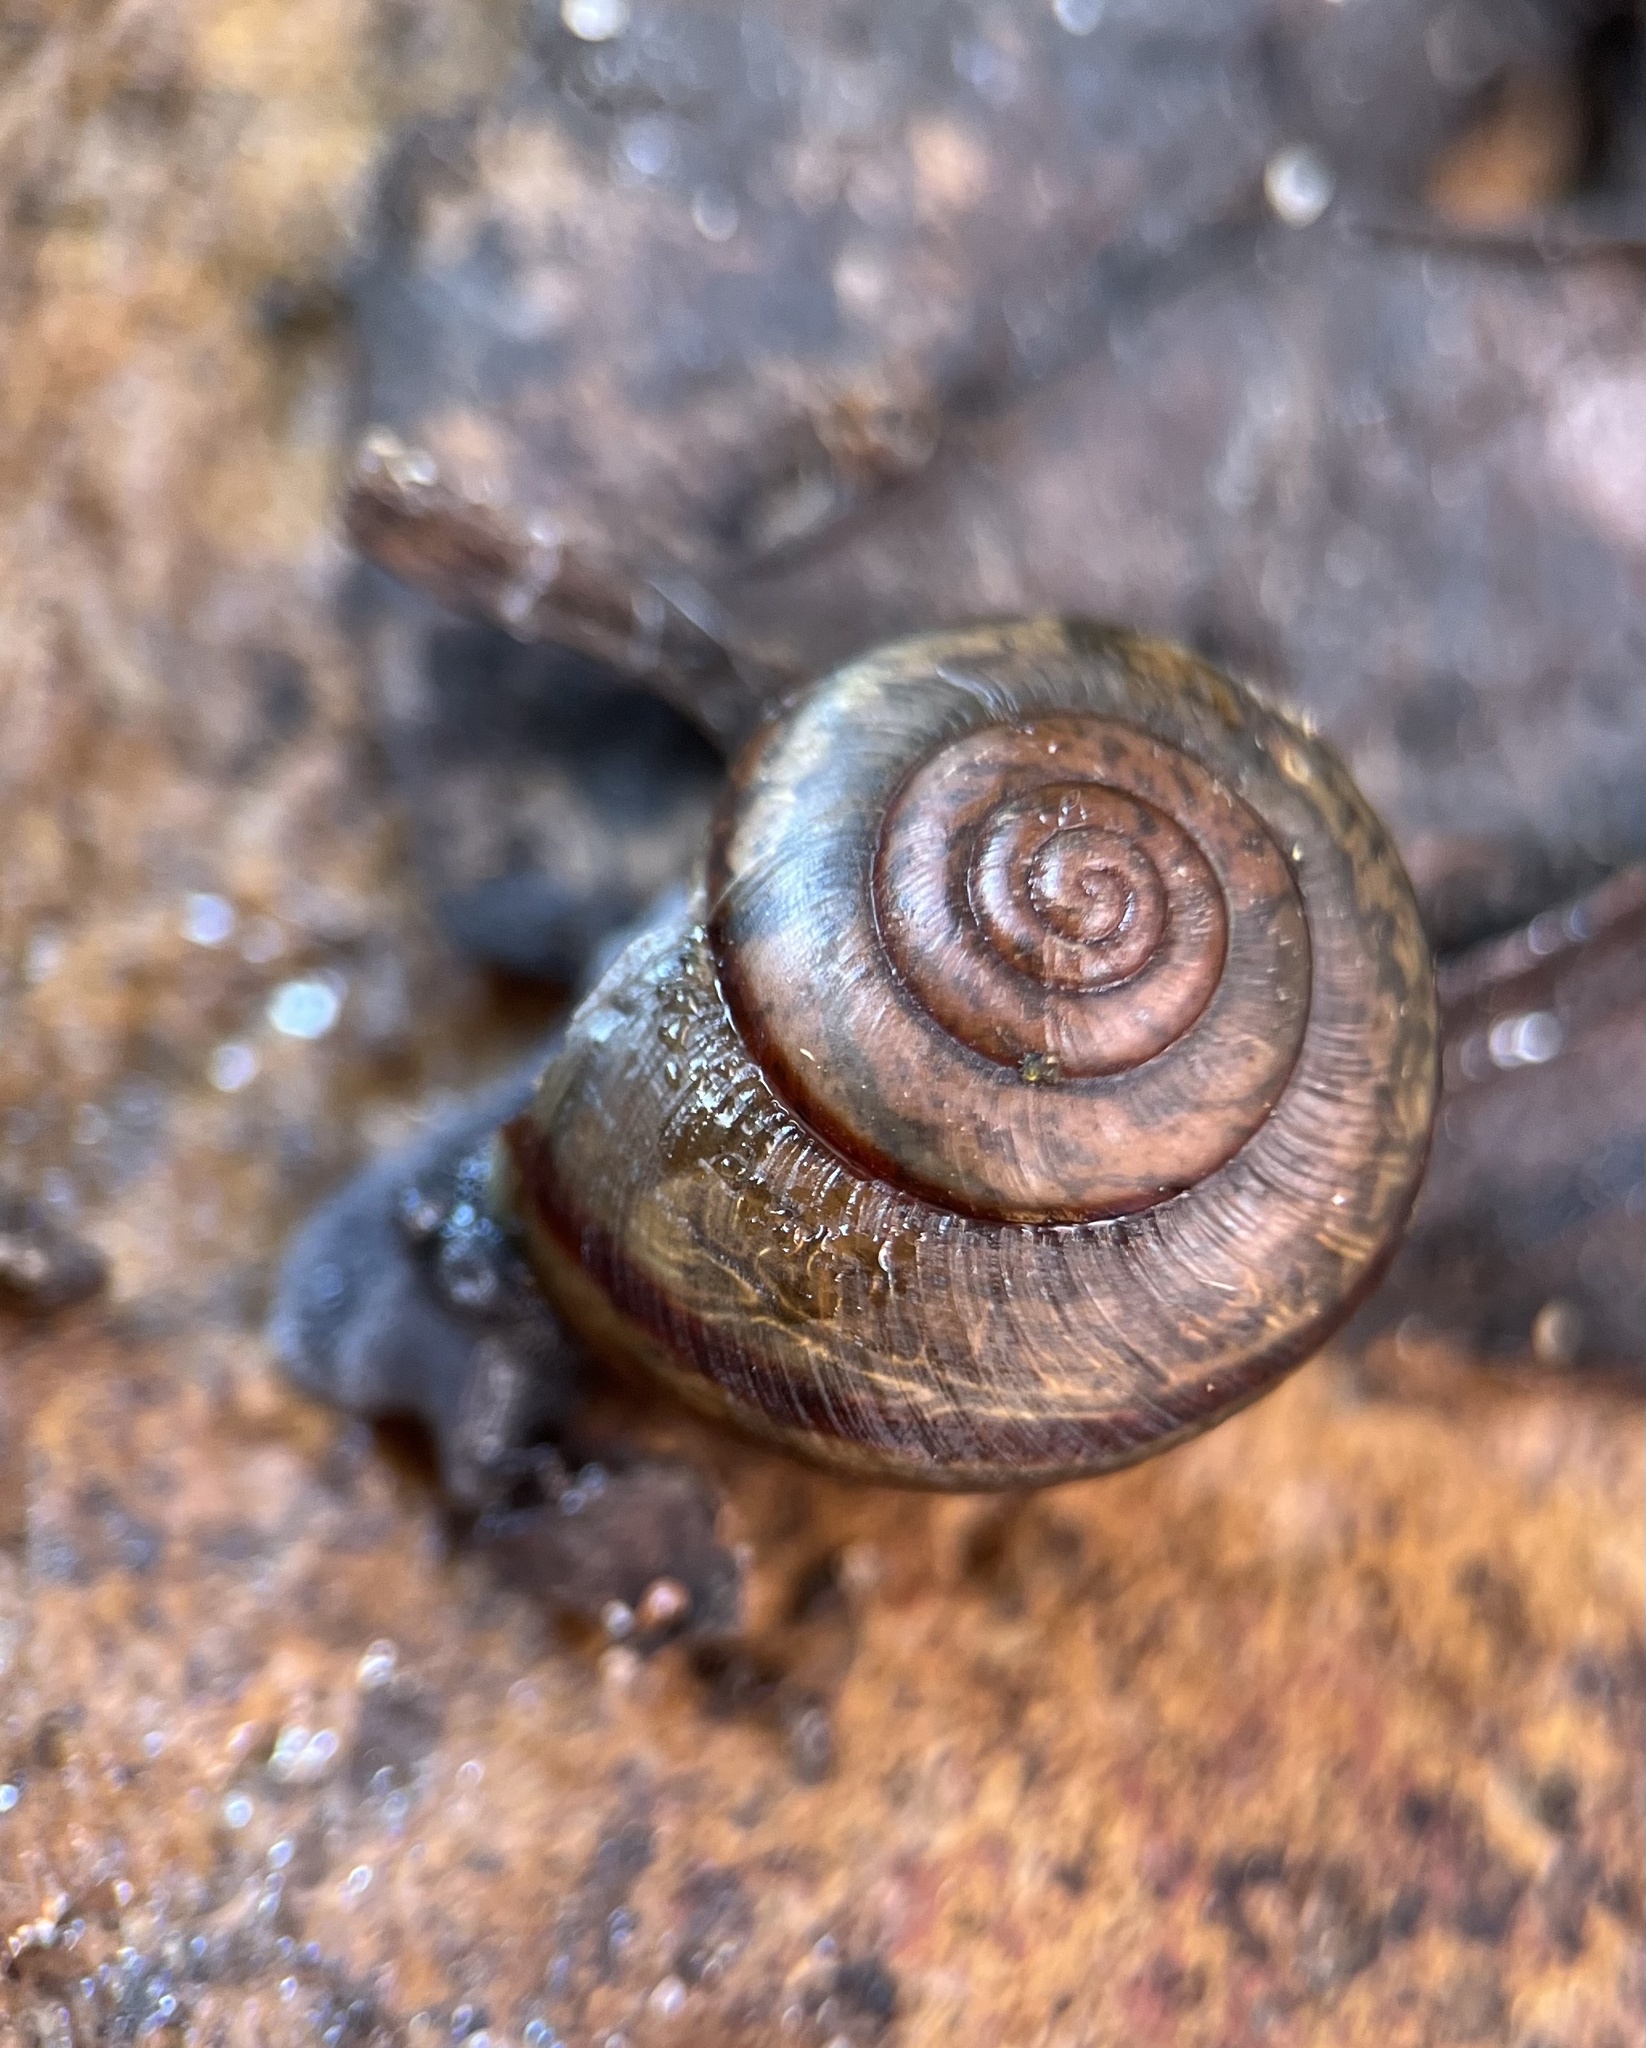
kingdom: Animalia
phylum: Mollusca
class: Gastropoda
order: Stylommatophora
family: Xanthonychidae
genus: Helminthoglypta
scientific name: Helminthoglypta traskii
